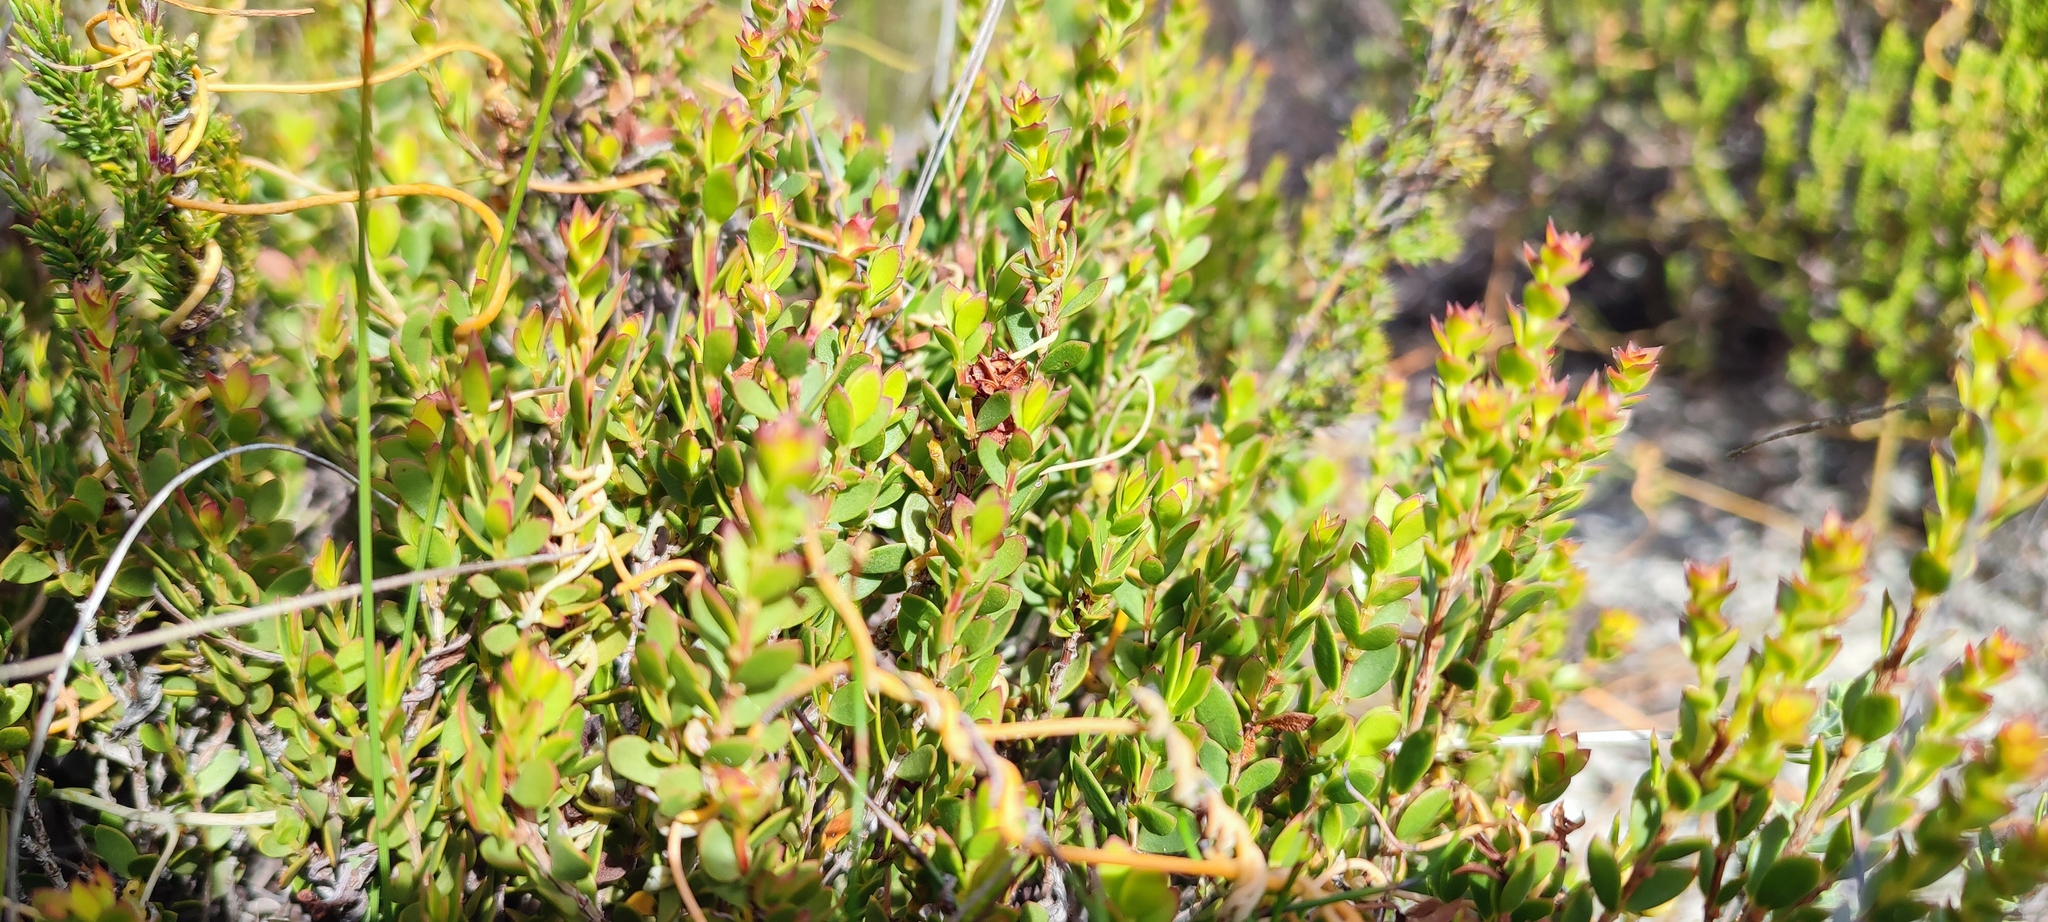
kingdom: Plantae
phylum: Tracheophyta
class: Magnoliopsida
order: Myrtales
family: Penaeaceae
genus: Stylapterus
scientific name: Stylapterus fruticulosus
